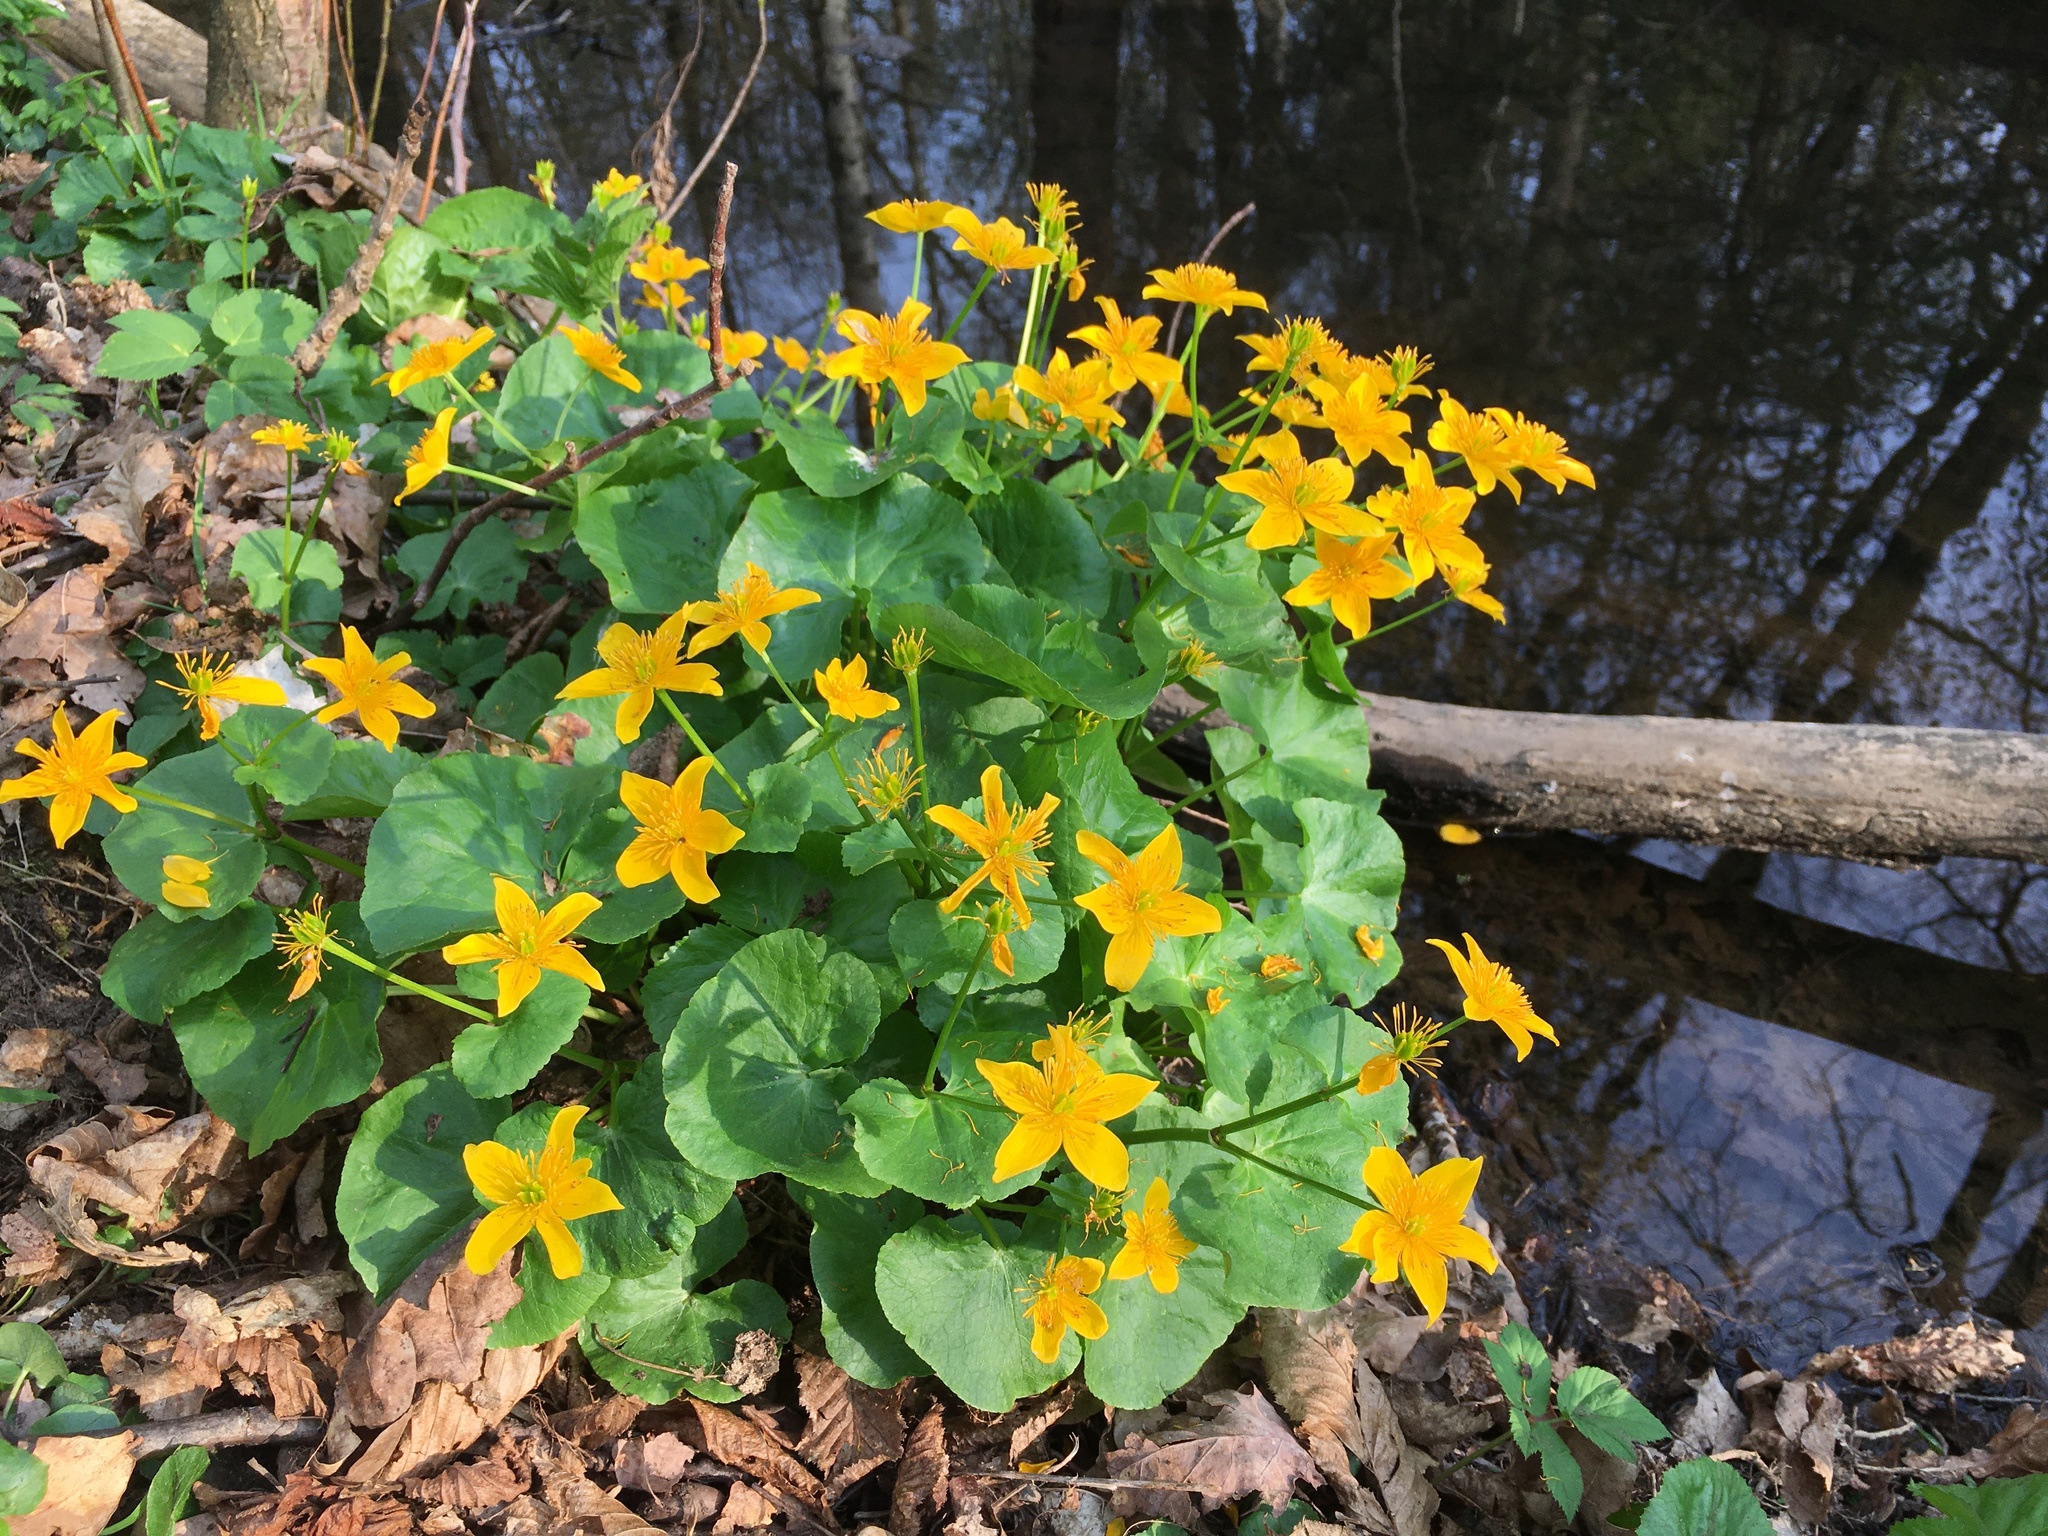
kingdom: Plantae
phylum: Tracheophyta
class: Magnoliopsida
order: Ranunculales
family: Ranunculaceae
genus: Caltha
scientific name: Caltha palustris
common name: Marsh marigold
